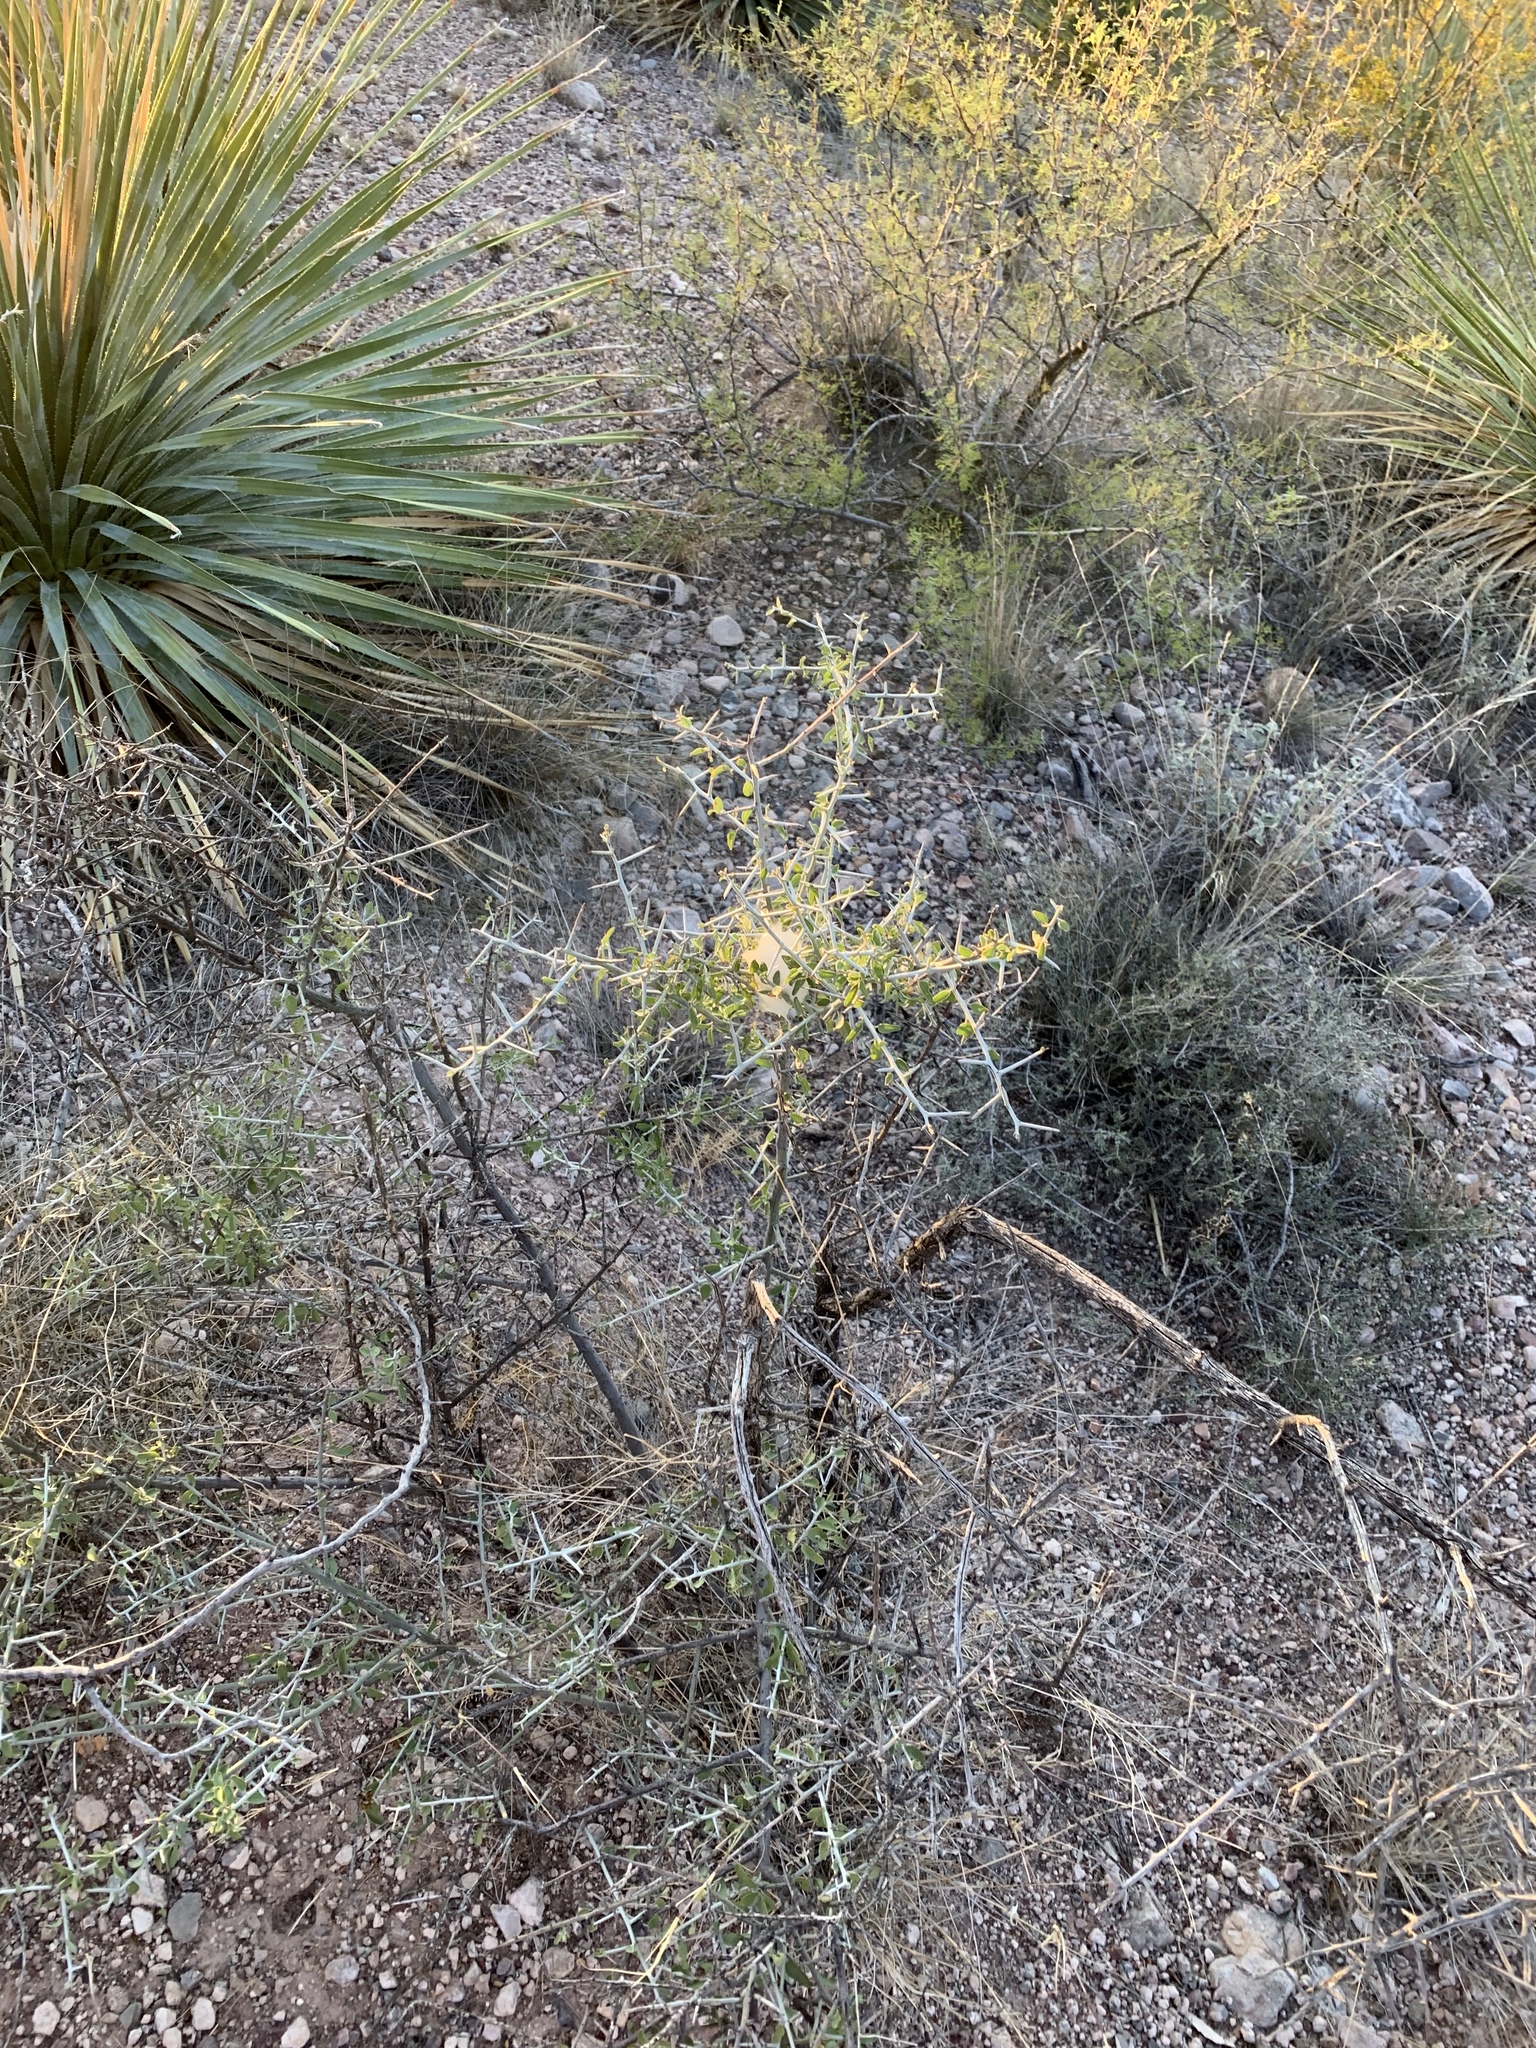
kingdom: Plantae
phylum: Tracheophyta
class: Magnoliopsida
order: Rosales
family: Rhamnaceae
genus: Sarcomphalus
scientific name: Sarcomphalus obtusifolius
